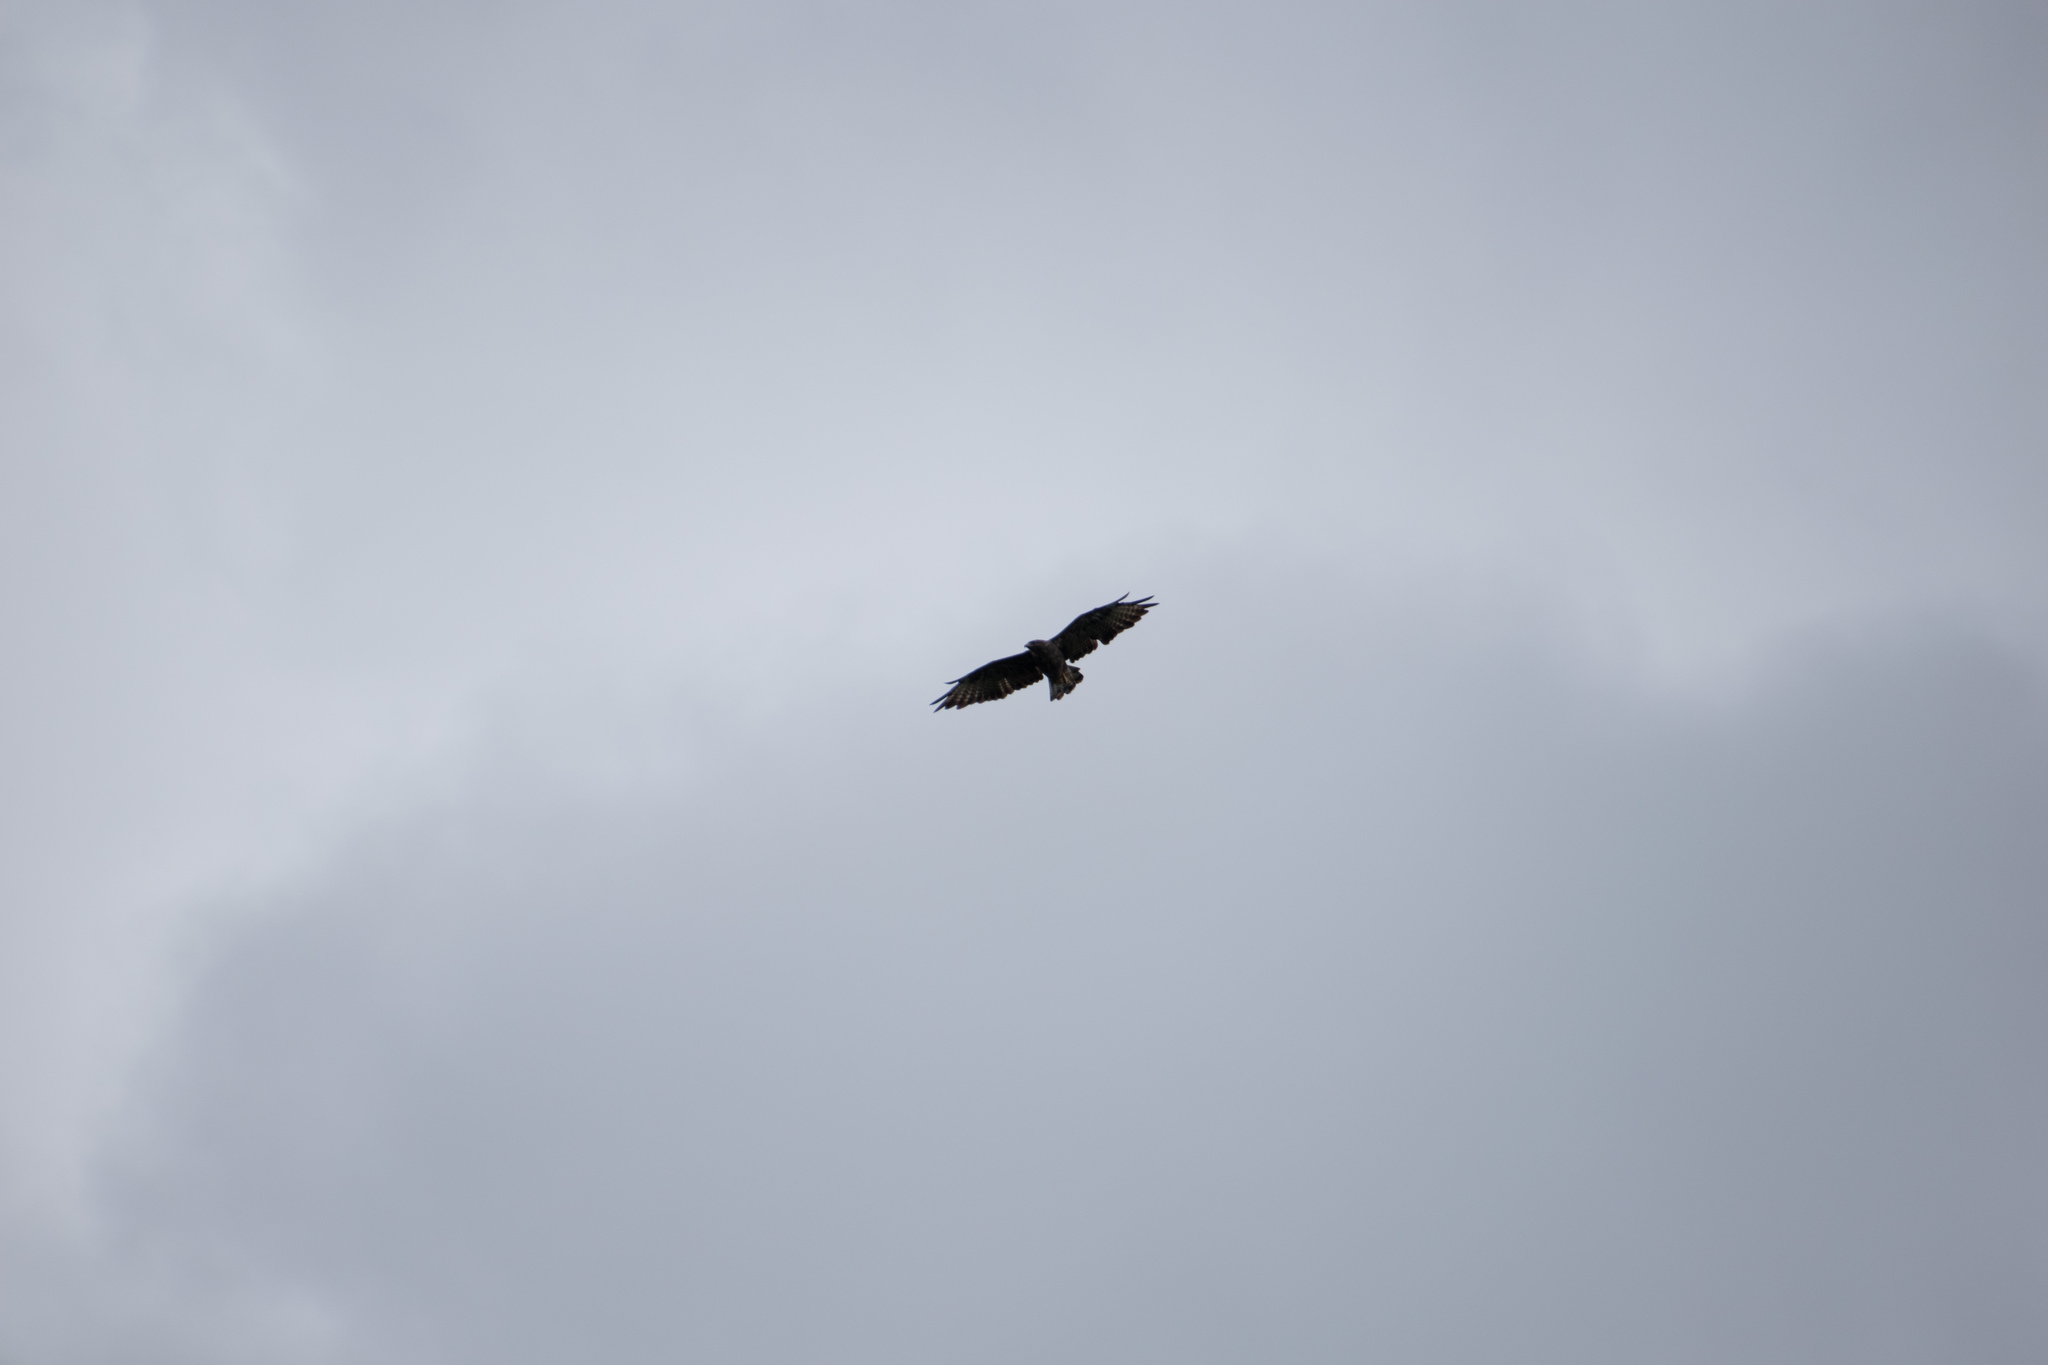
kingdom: Animalia
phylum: Chordata
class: Aves
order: Accipitriformes
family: Accipitridae
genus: Buteo
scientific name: Buteo buteo
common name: Common buzzard
